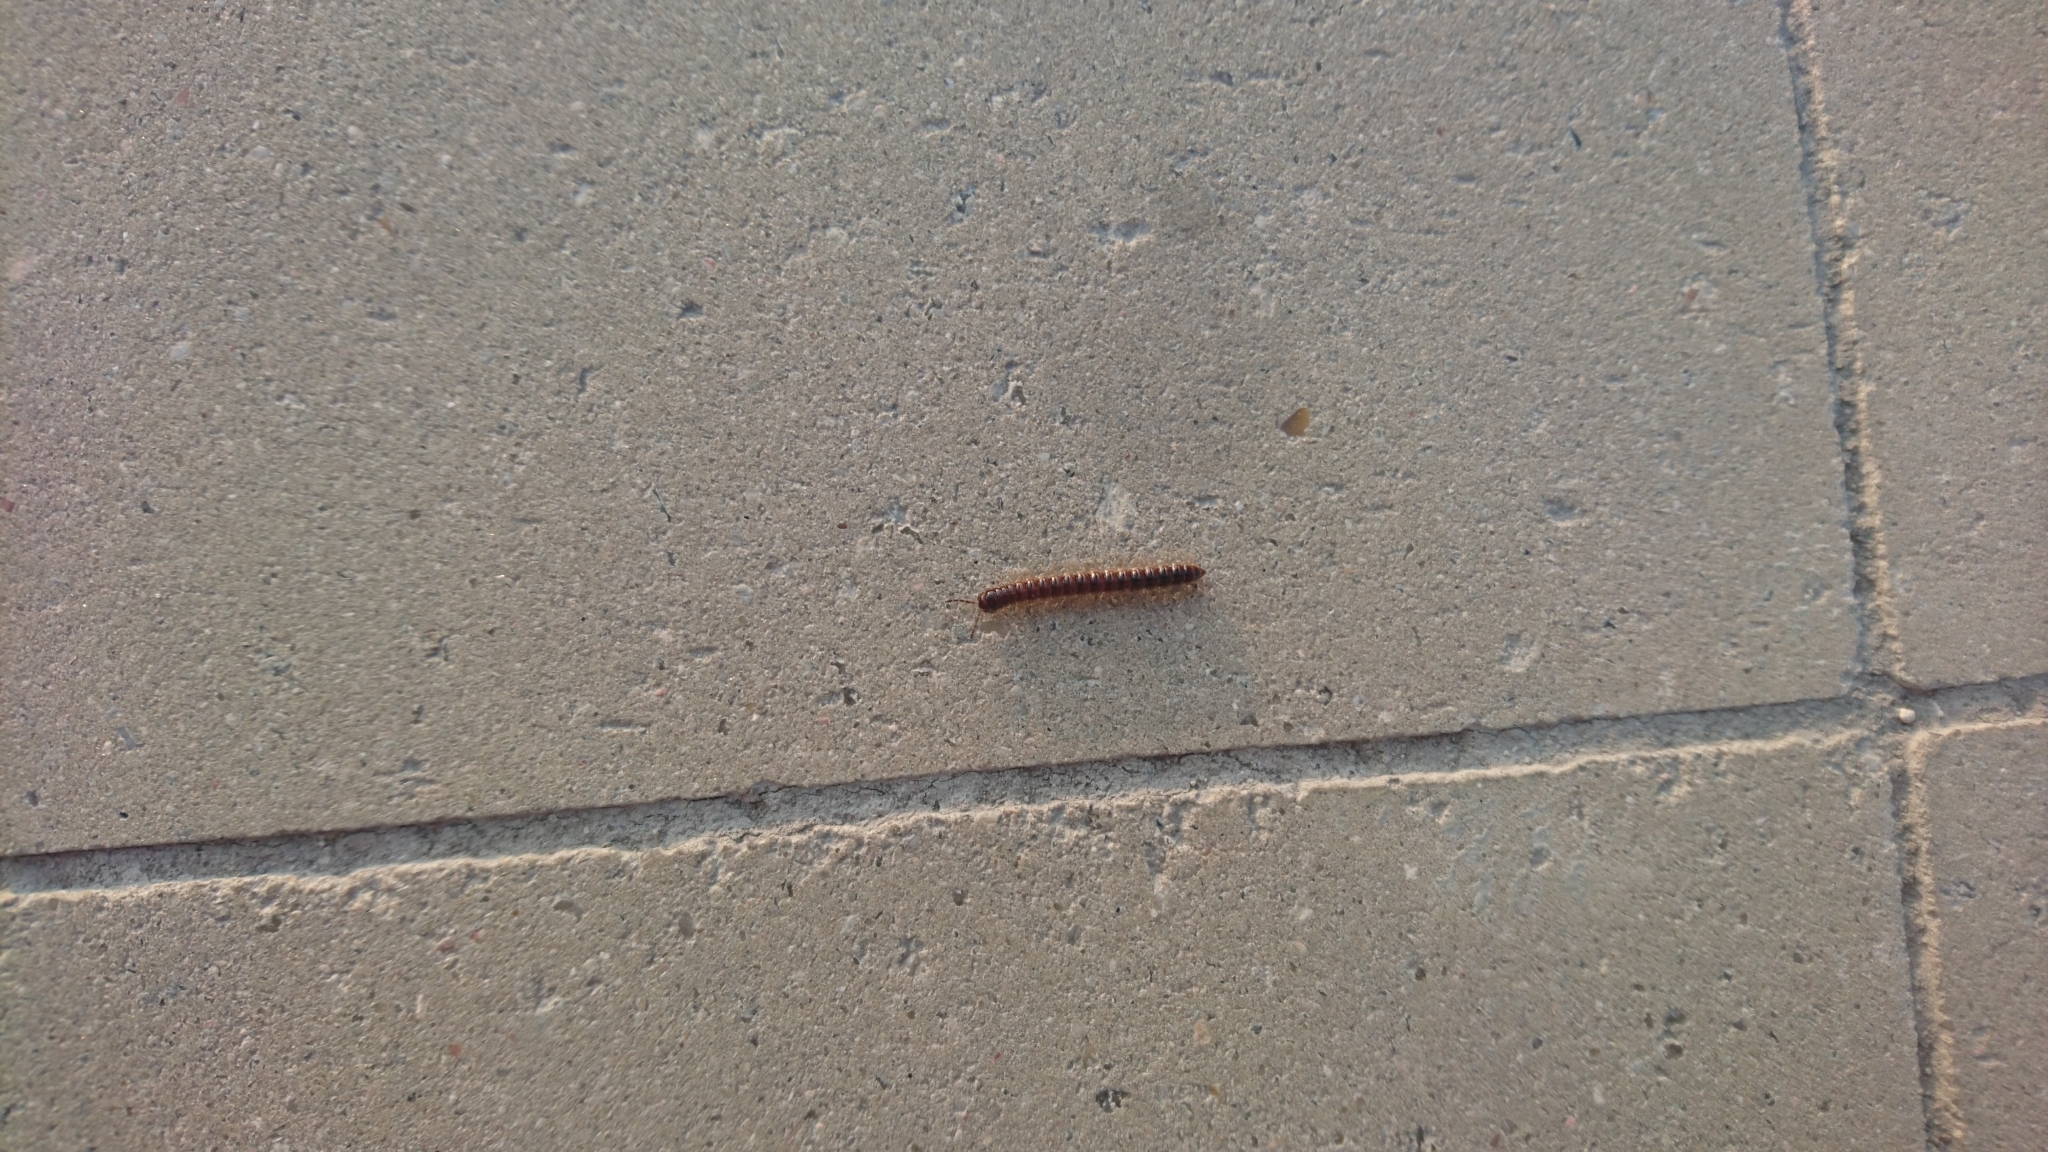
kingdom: Animalia
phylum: Arthropoda
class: Diplopoda
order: Polydesmida
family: Paradoxosomatidae
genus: Oxidus
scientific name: Oxidus gracilis
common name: Greenhouse millipede
